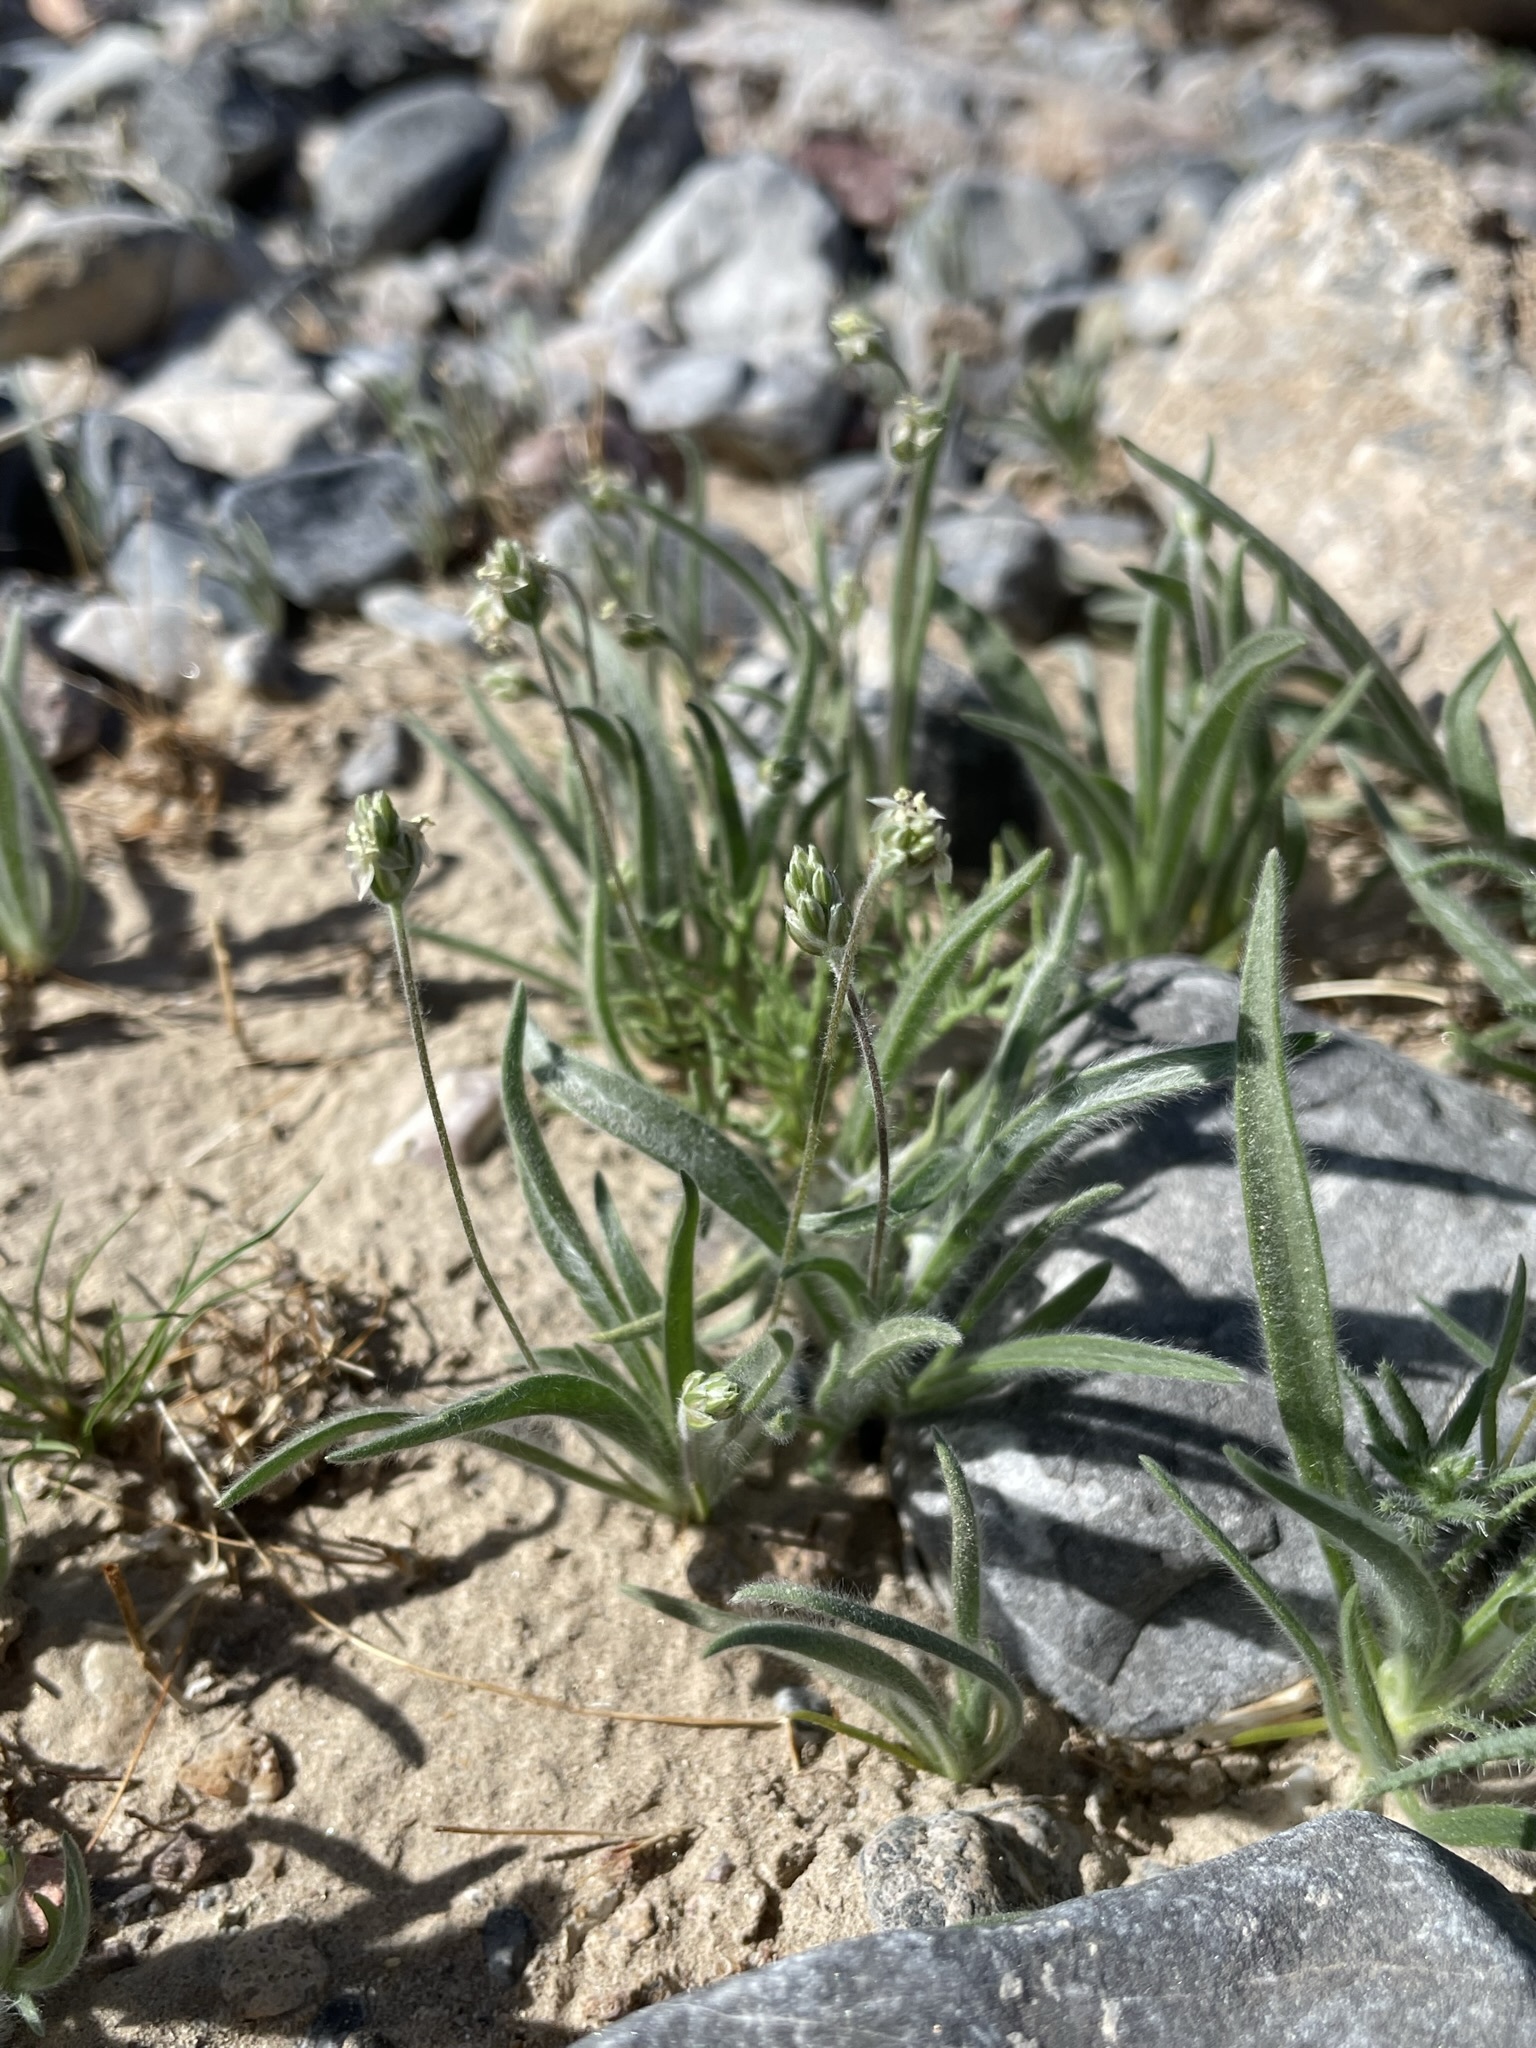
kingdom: Plantae
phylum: Tracheophyta
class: Magnoliopsida
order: Lamiales
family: Plantaginaceae
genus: Plantago
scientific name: Plantago ovata
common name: Blond plantain
